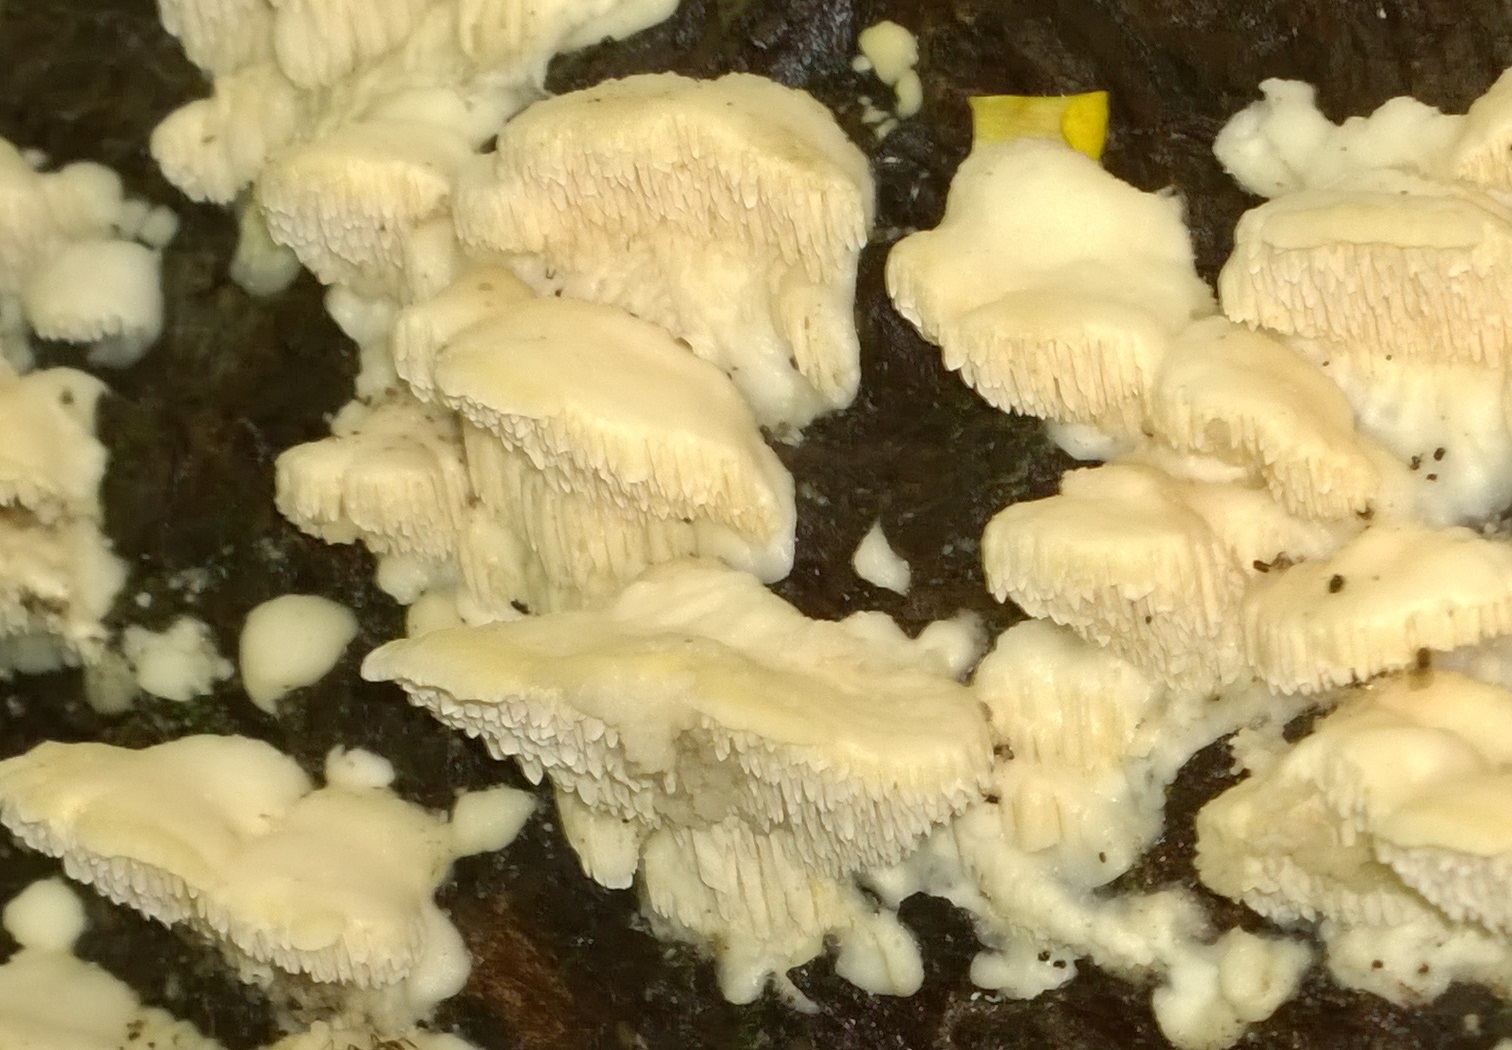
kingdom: Fungi
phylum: Basidiomycota
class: Agaricomycetes
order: Polyporales
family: Meruliaceae
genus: Irpiciporus
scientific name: Irpiciporus pachyodon
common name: Marshmallow polypore
